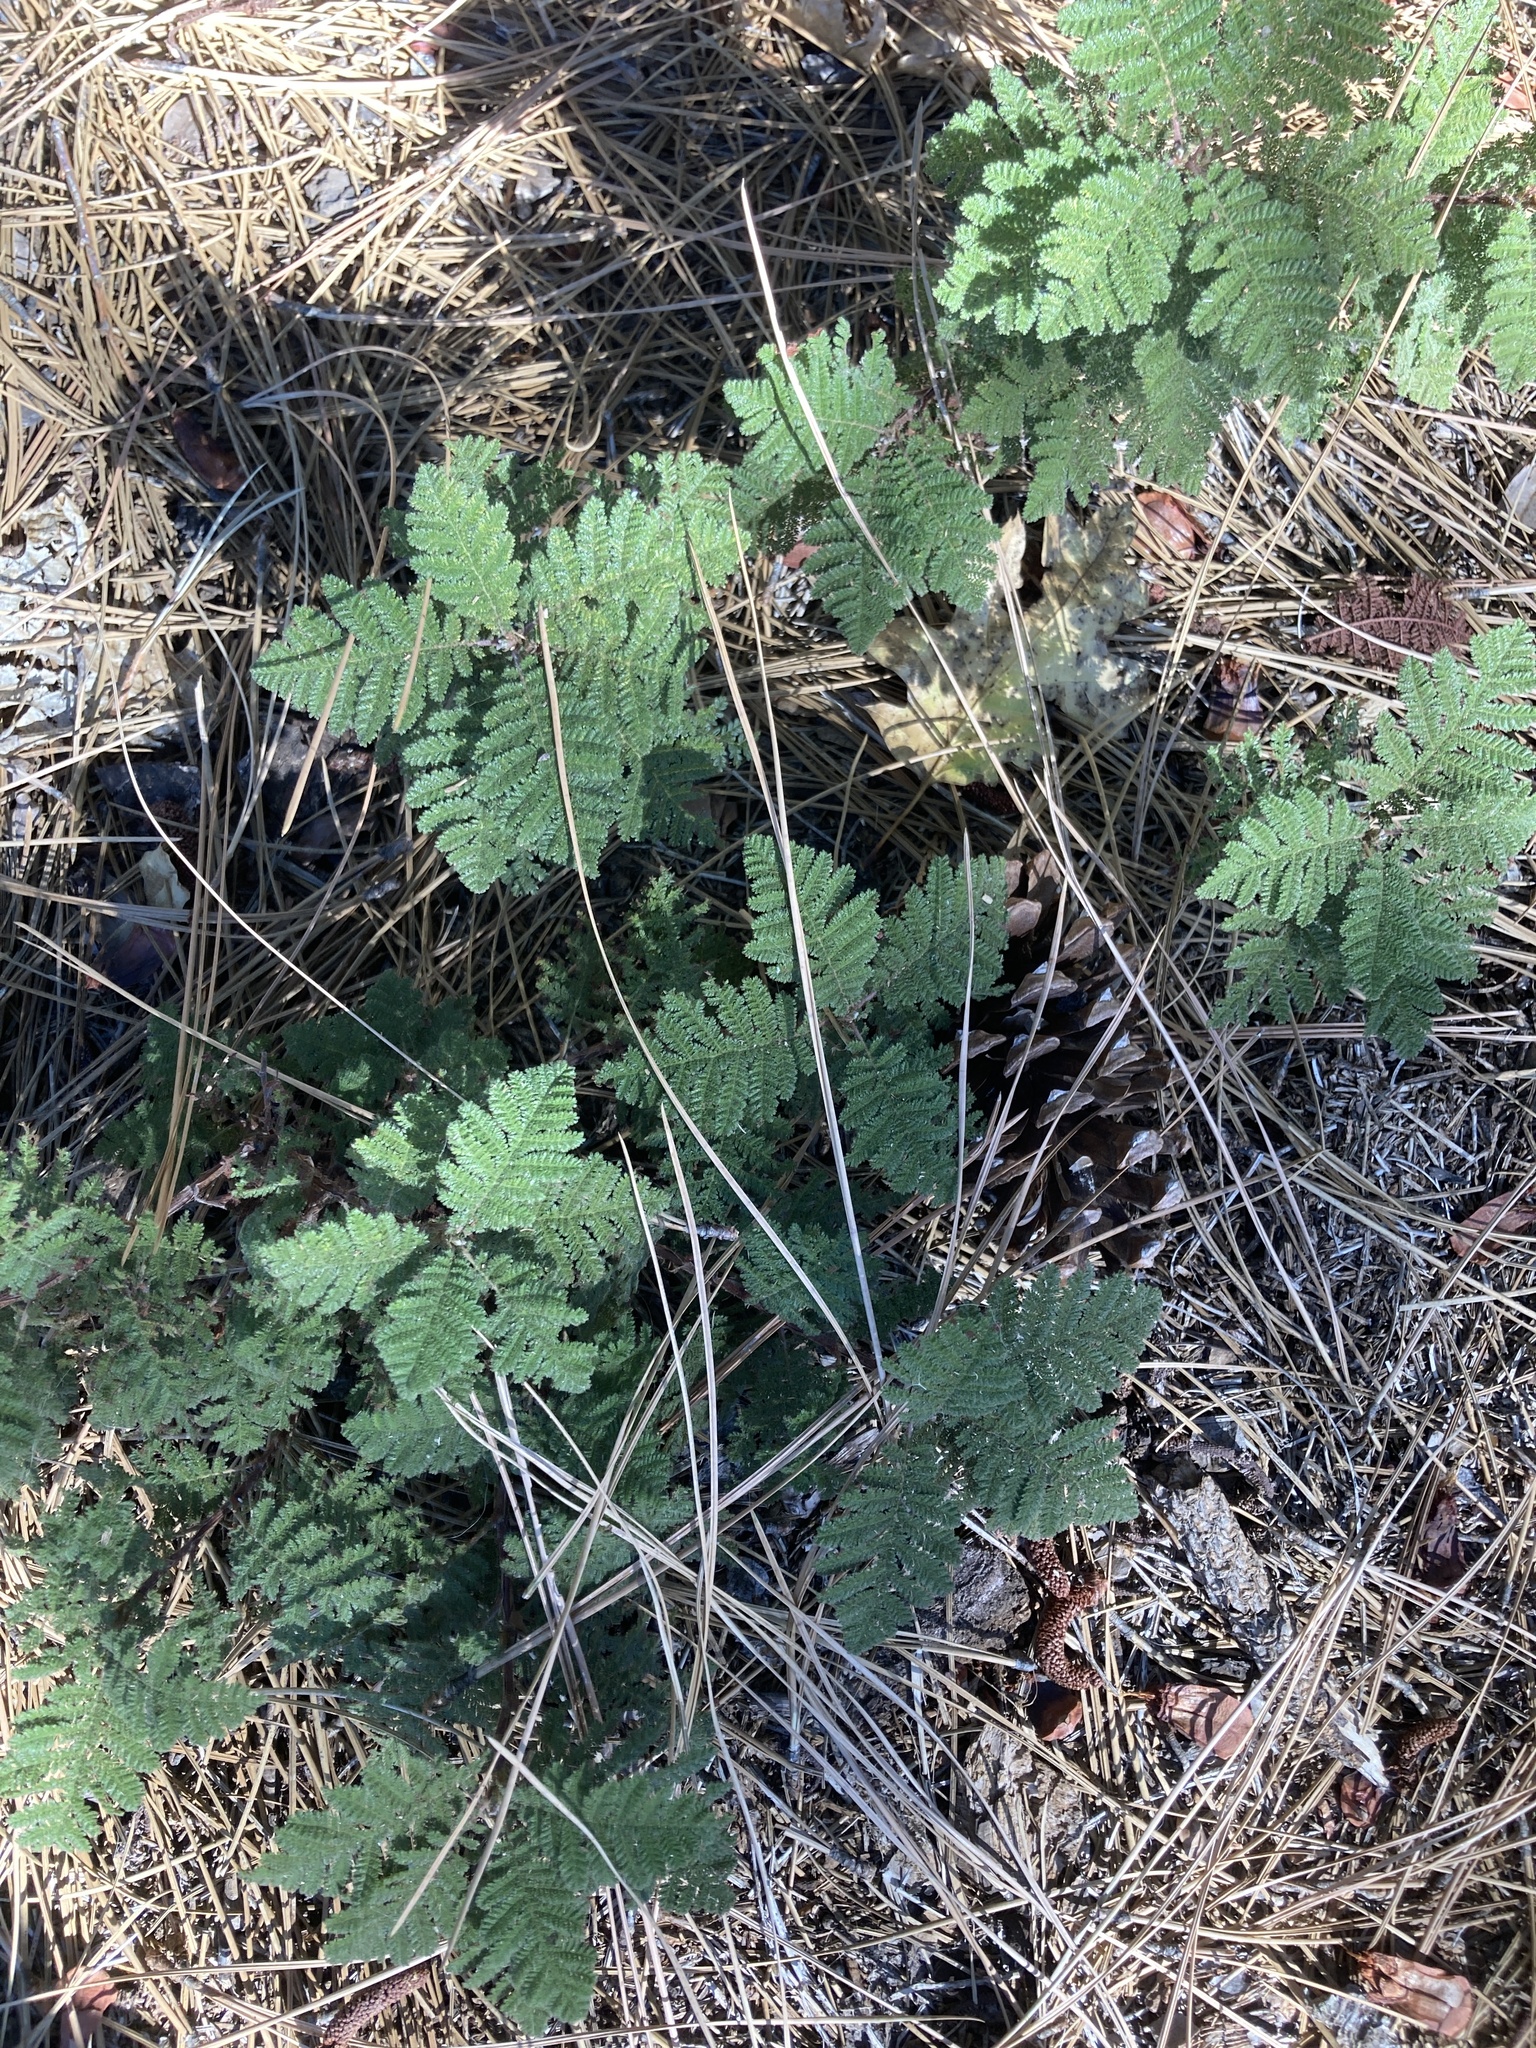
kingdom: Plantae
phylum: Tracheophyta
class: Magnoliopsida
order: Rosales
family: Rosaceae
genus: Chamaebatia
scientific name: Chamaebatia foliolosa
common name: Mountain misery
